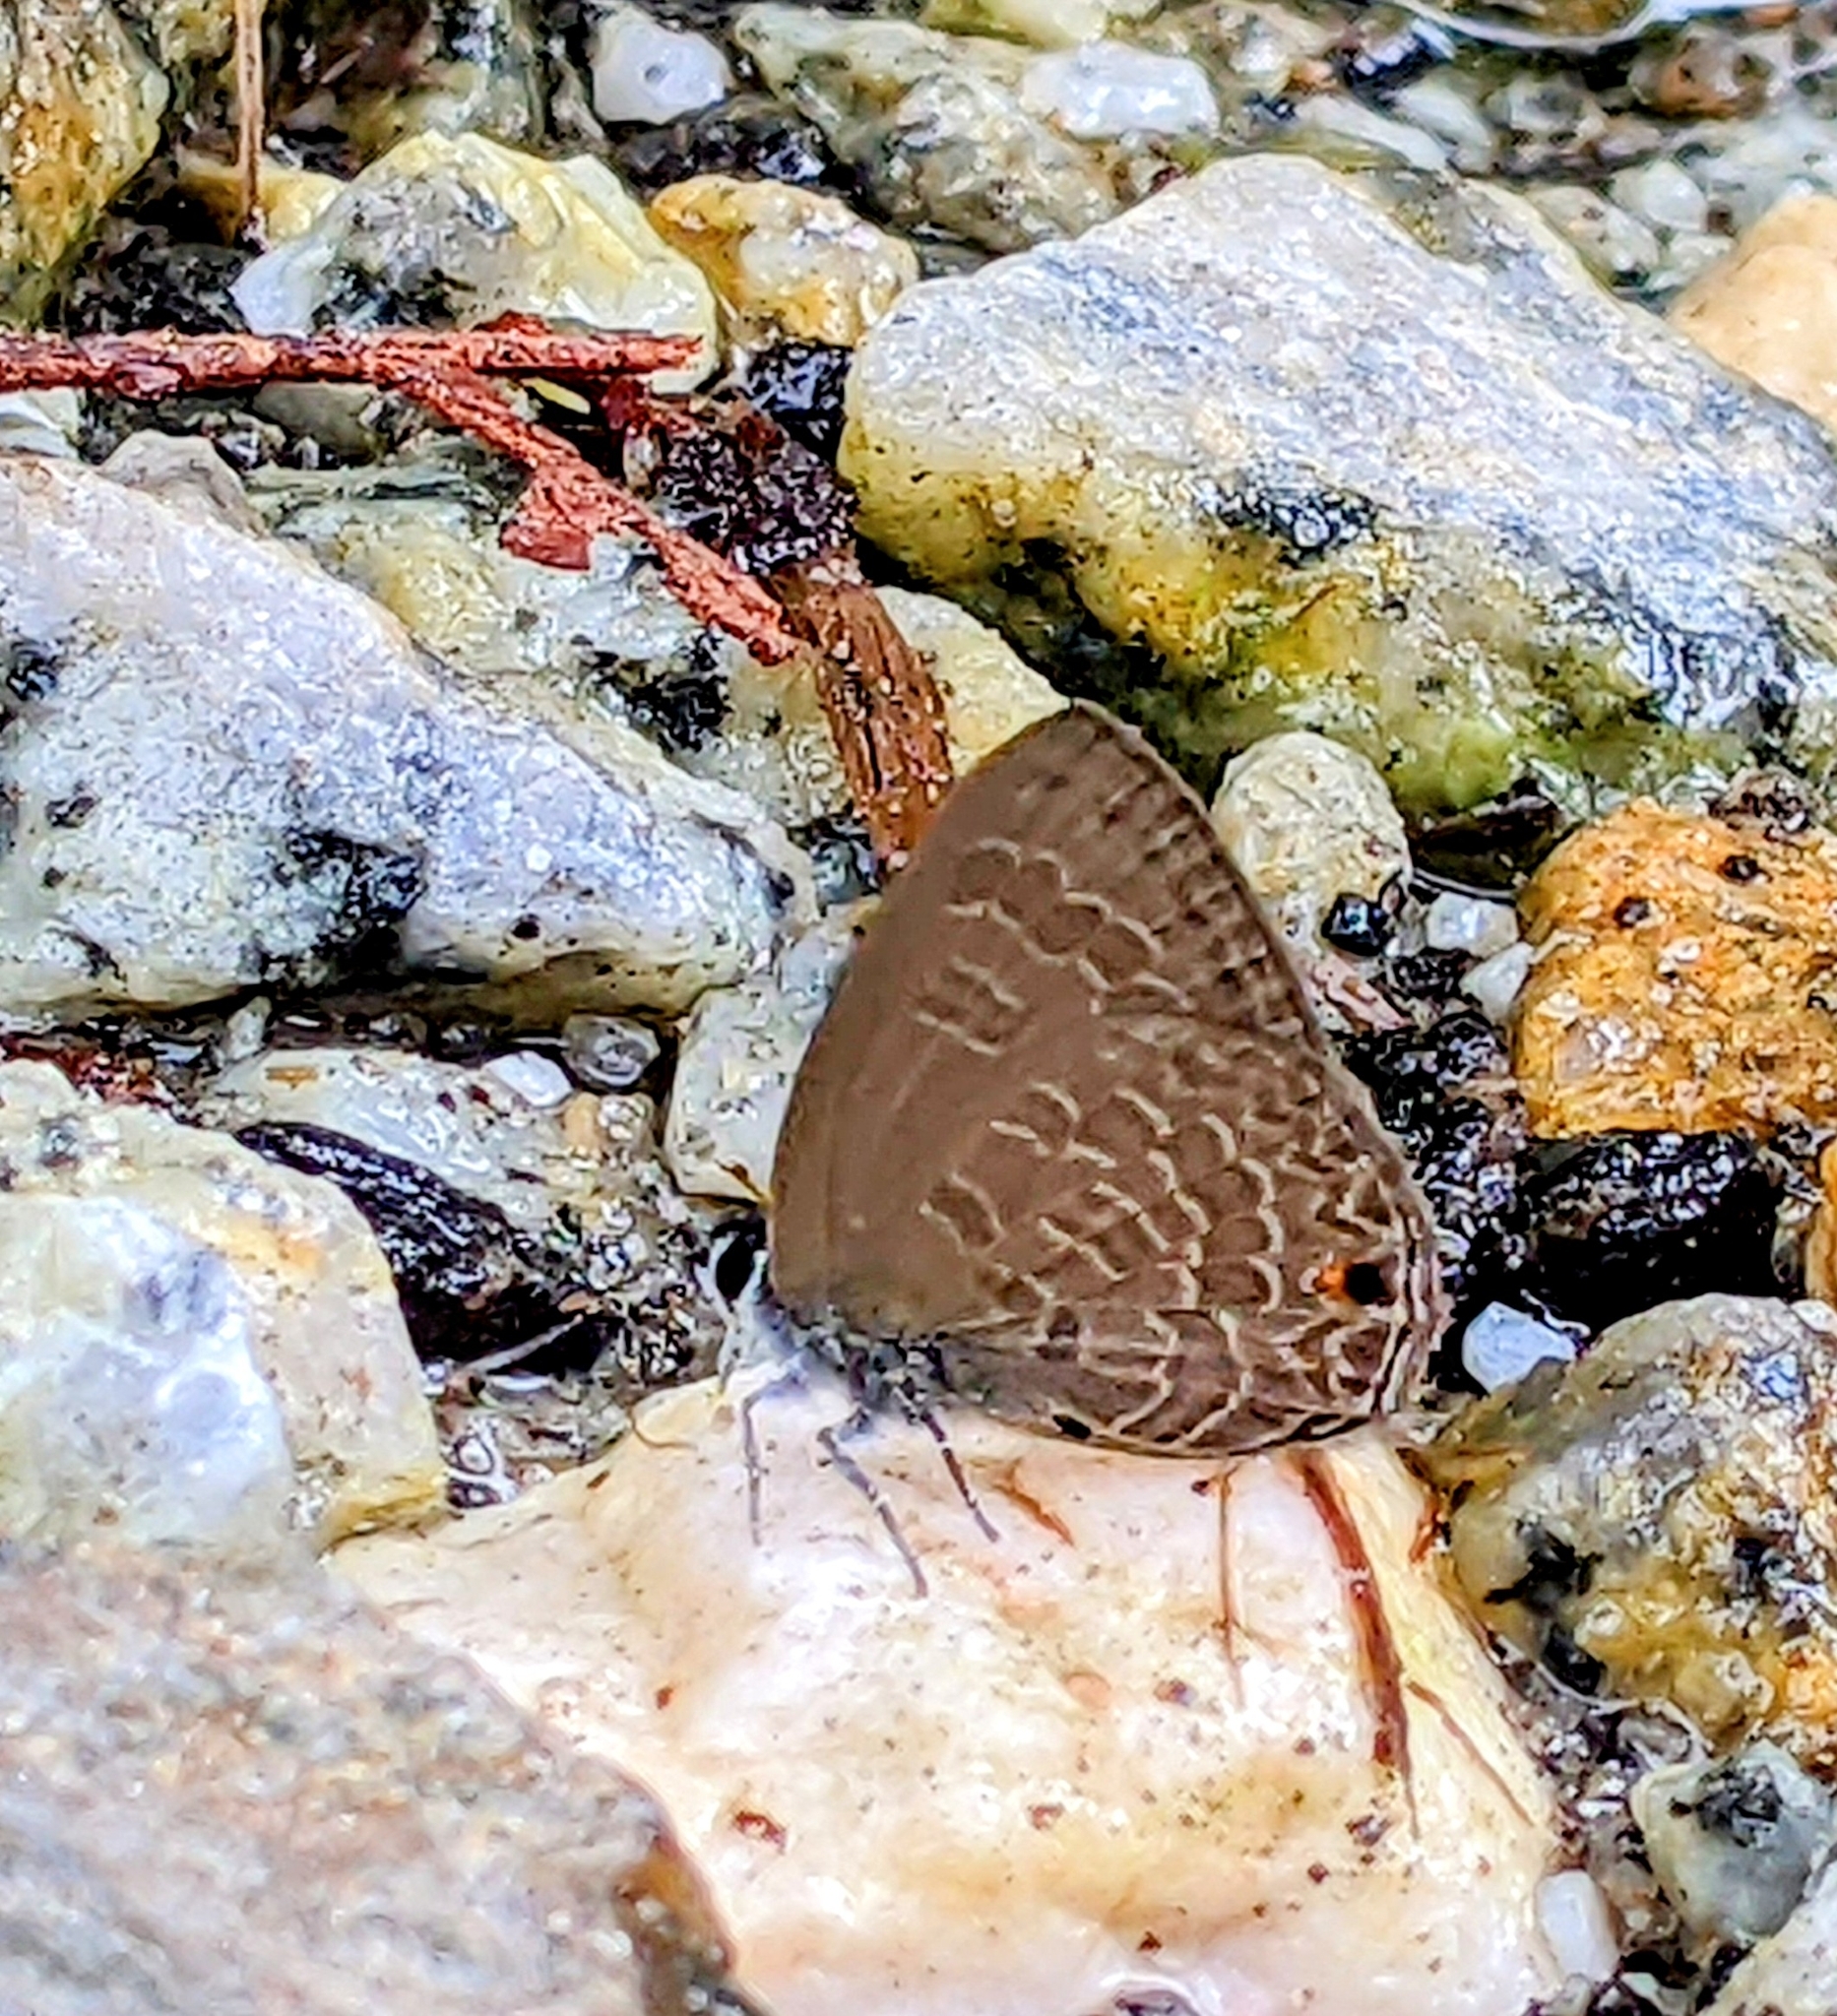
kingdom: Animalia
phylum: Arthropoda
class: Insecta
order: Lepidoptera
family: Lycaenidae
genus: Anthene
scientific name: Anthene emolus
